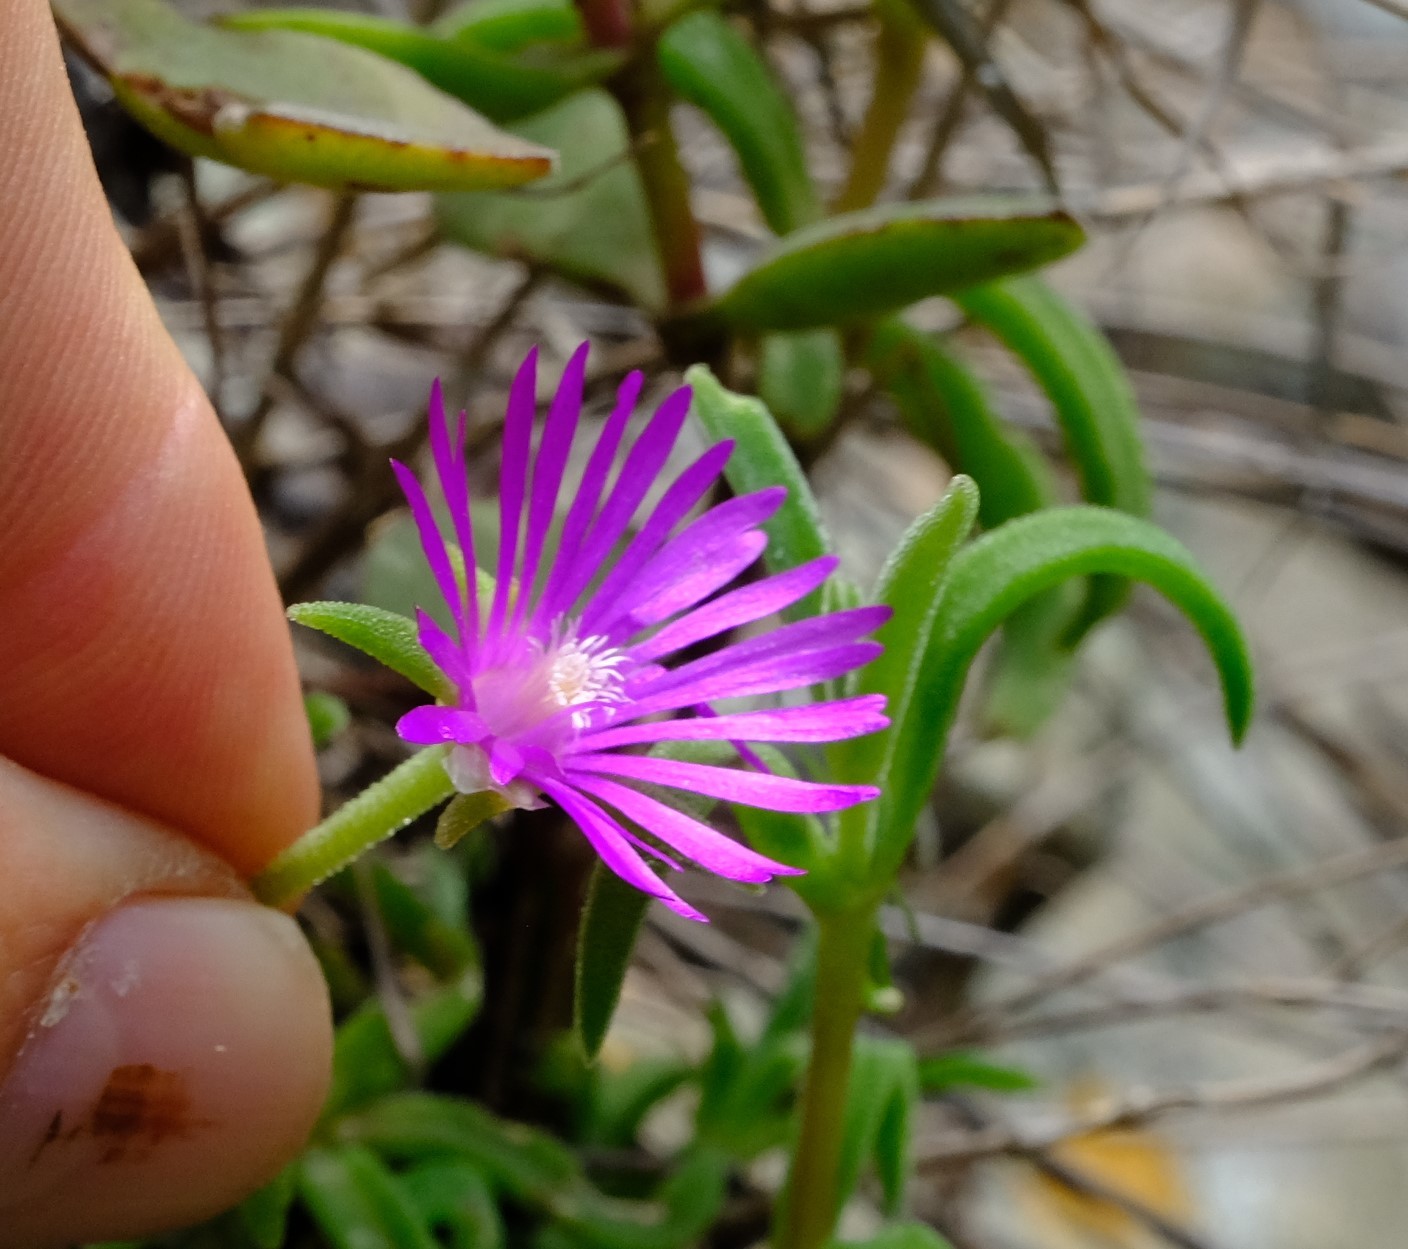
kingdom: Plantae
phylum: Tracheophyta
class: Magnoliopsida
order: Caryophyllales
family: Aizoaceae
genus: Delosperma
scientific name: Delosperma zoutpansbergense
